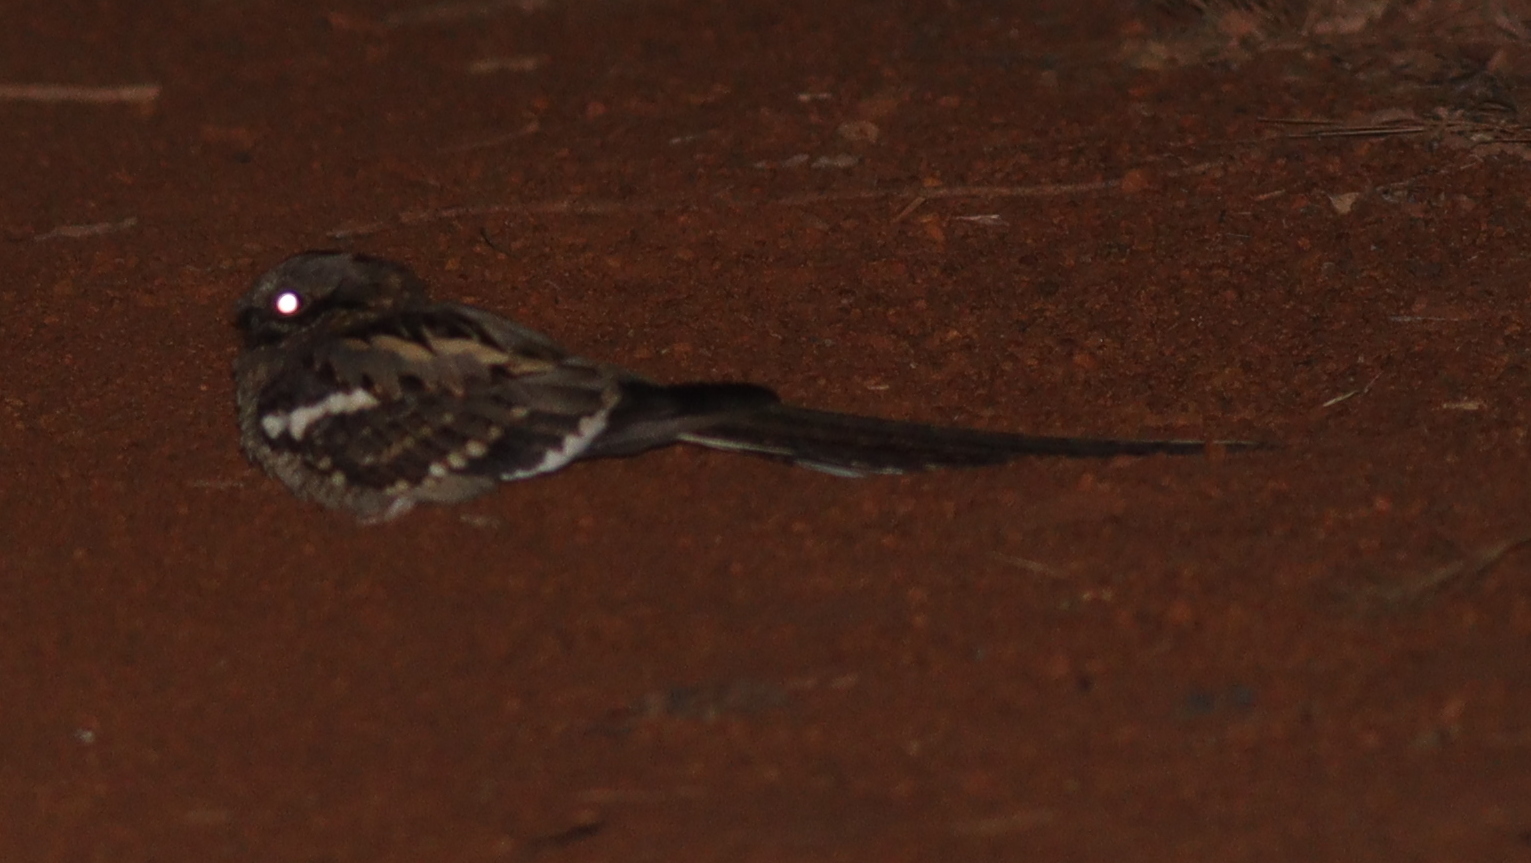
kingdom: Animalia
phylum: Chordata
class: Aves
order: Caprimulgiformes
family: Caprimulgidae
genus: Caprimulgus
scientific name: Caprimulgus climacurus
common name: Long-tailed nightjar
